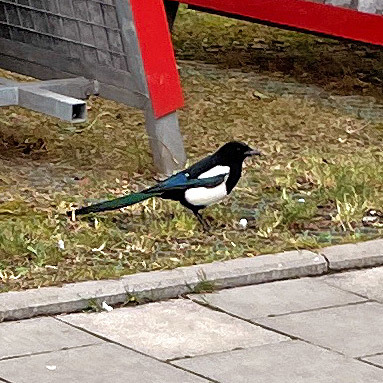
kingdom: Animalia
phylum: Chordata
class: Aves
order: Passeriformes
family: Corvidae
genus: Pica
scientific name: Pica pica
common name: Eurasian magpie
